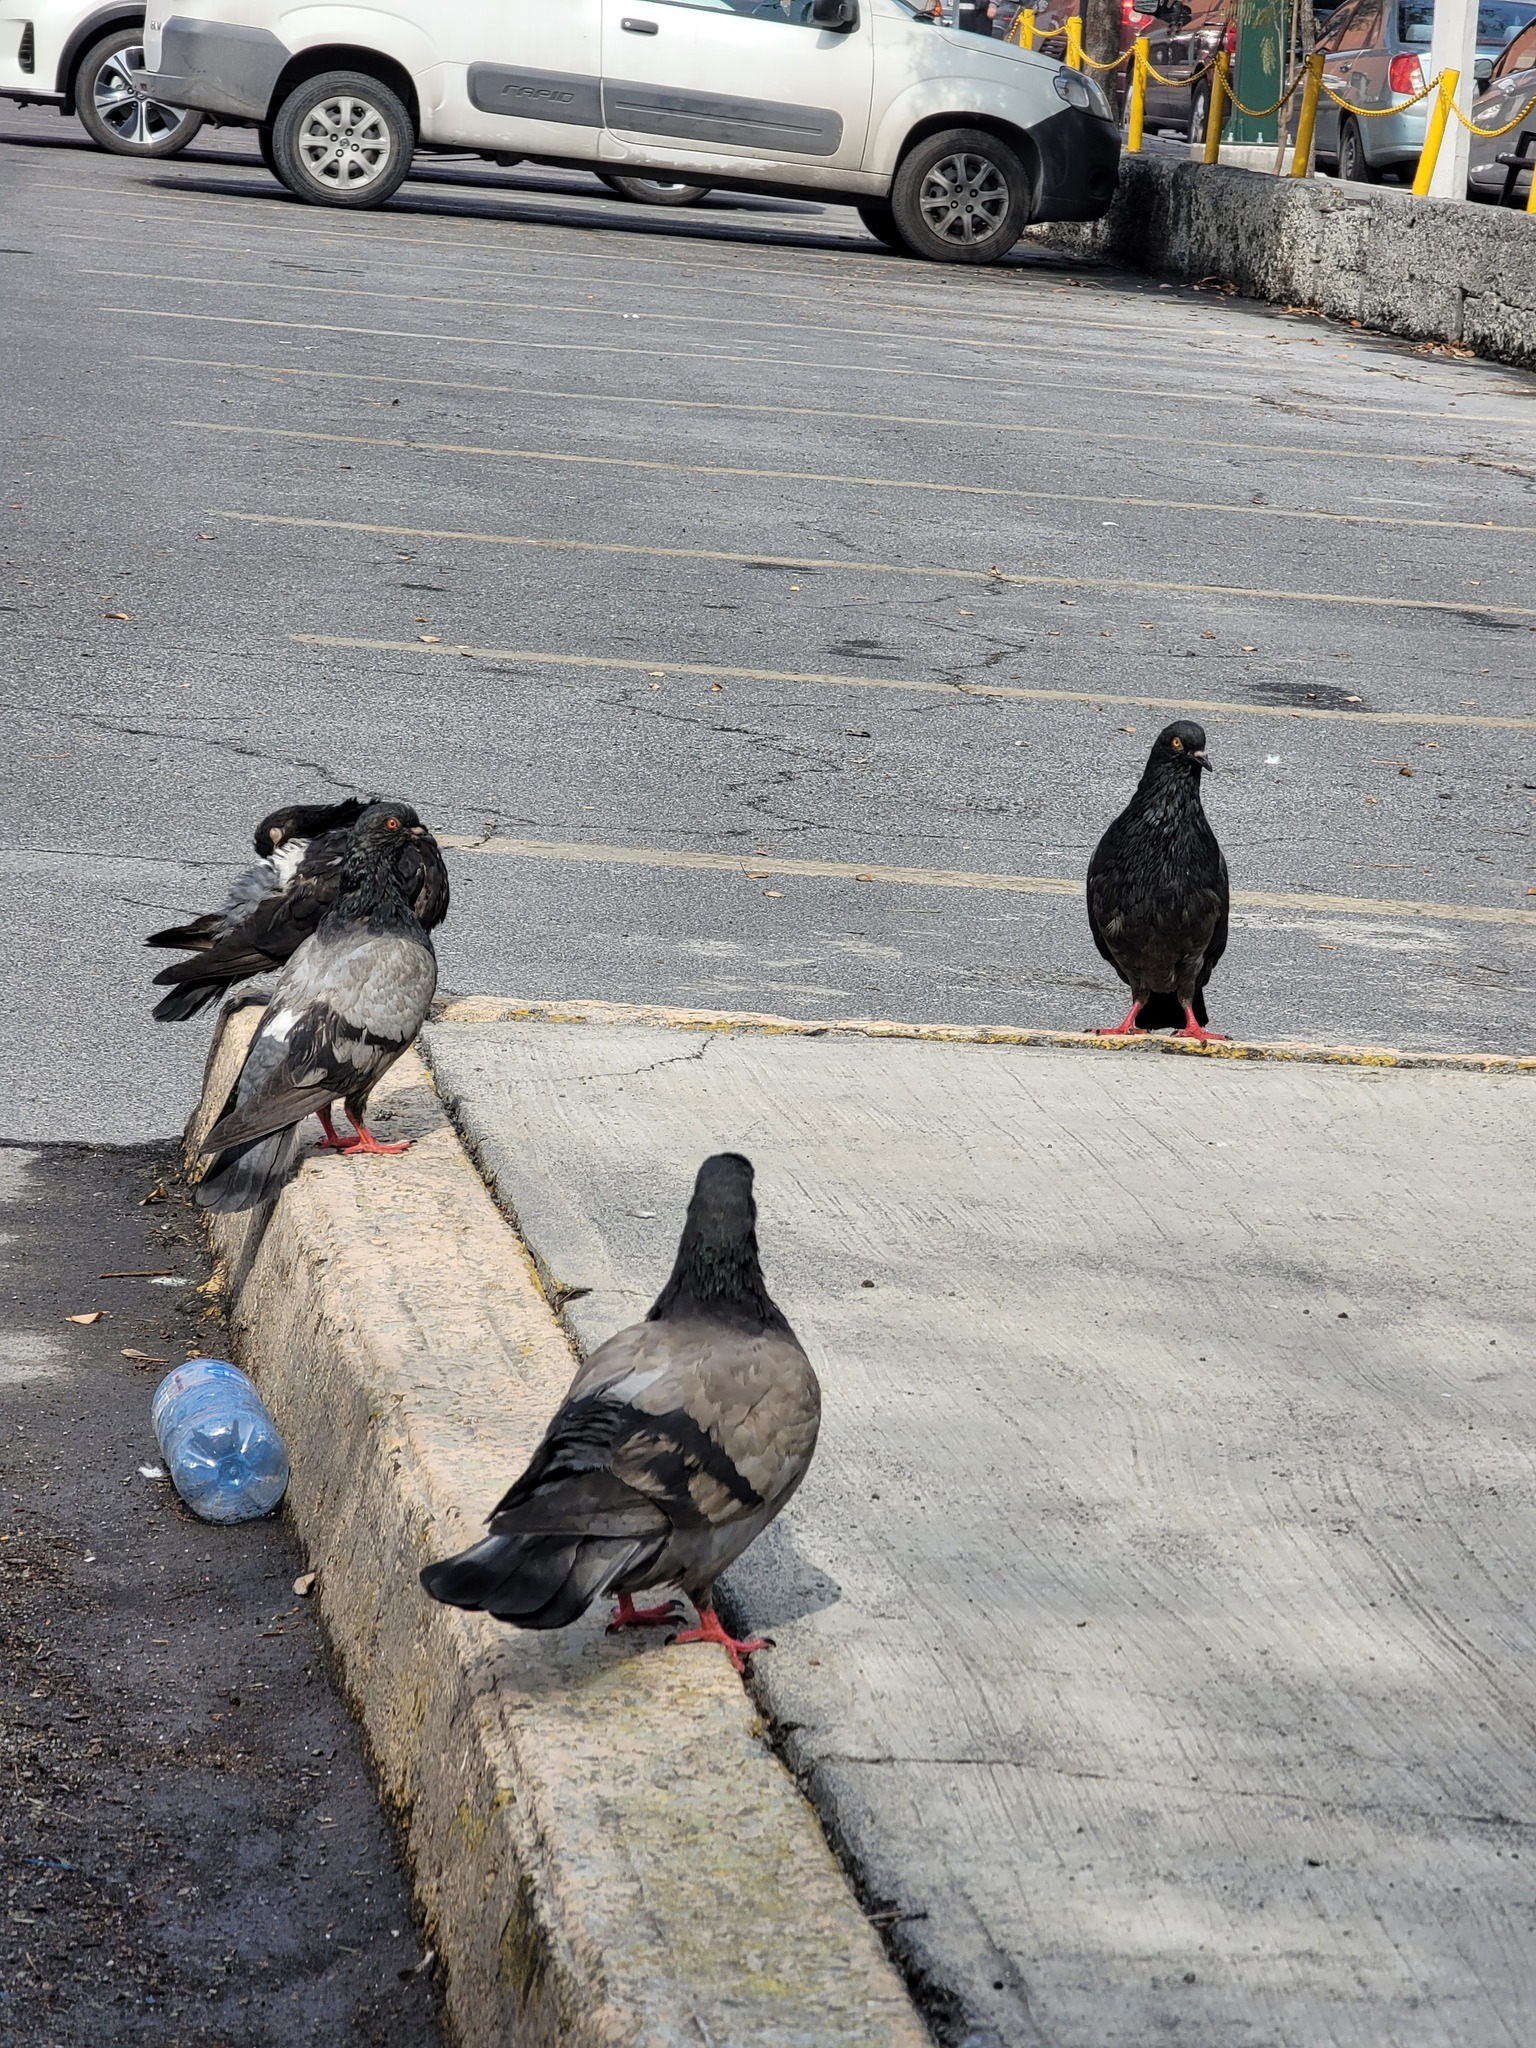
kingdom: Animalia
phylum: Chordata
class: Aves
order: Columbiformes
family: Columbidae
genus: Columba
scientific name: Columba livia
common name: Rock pigeon
